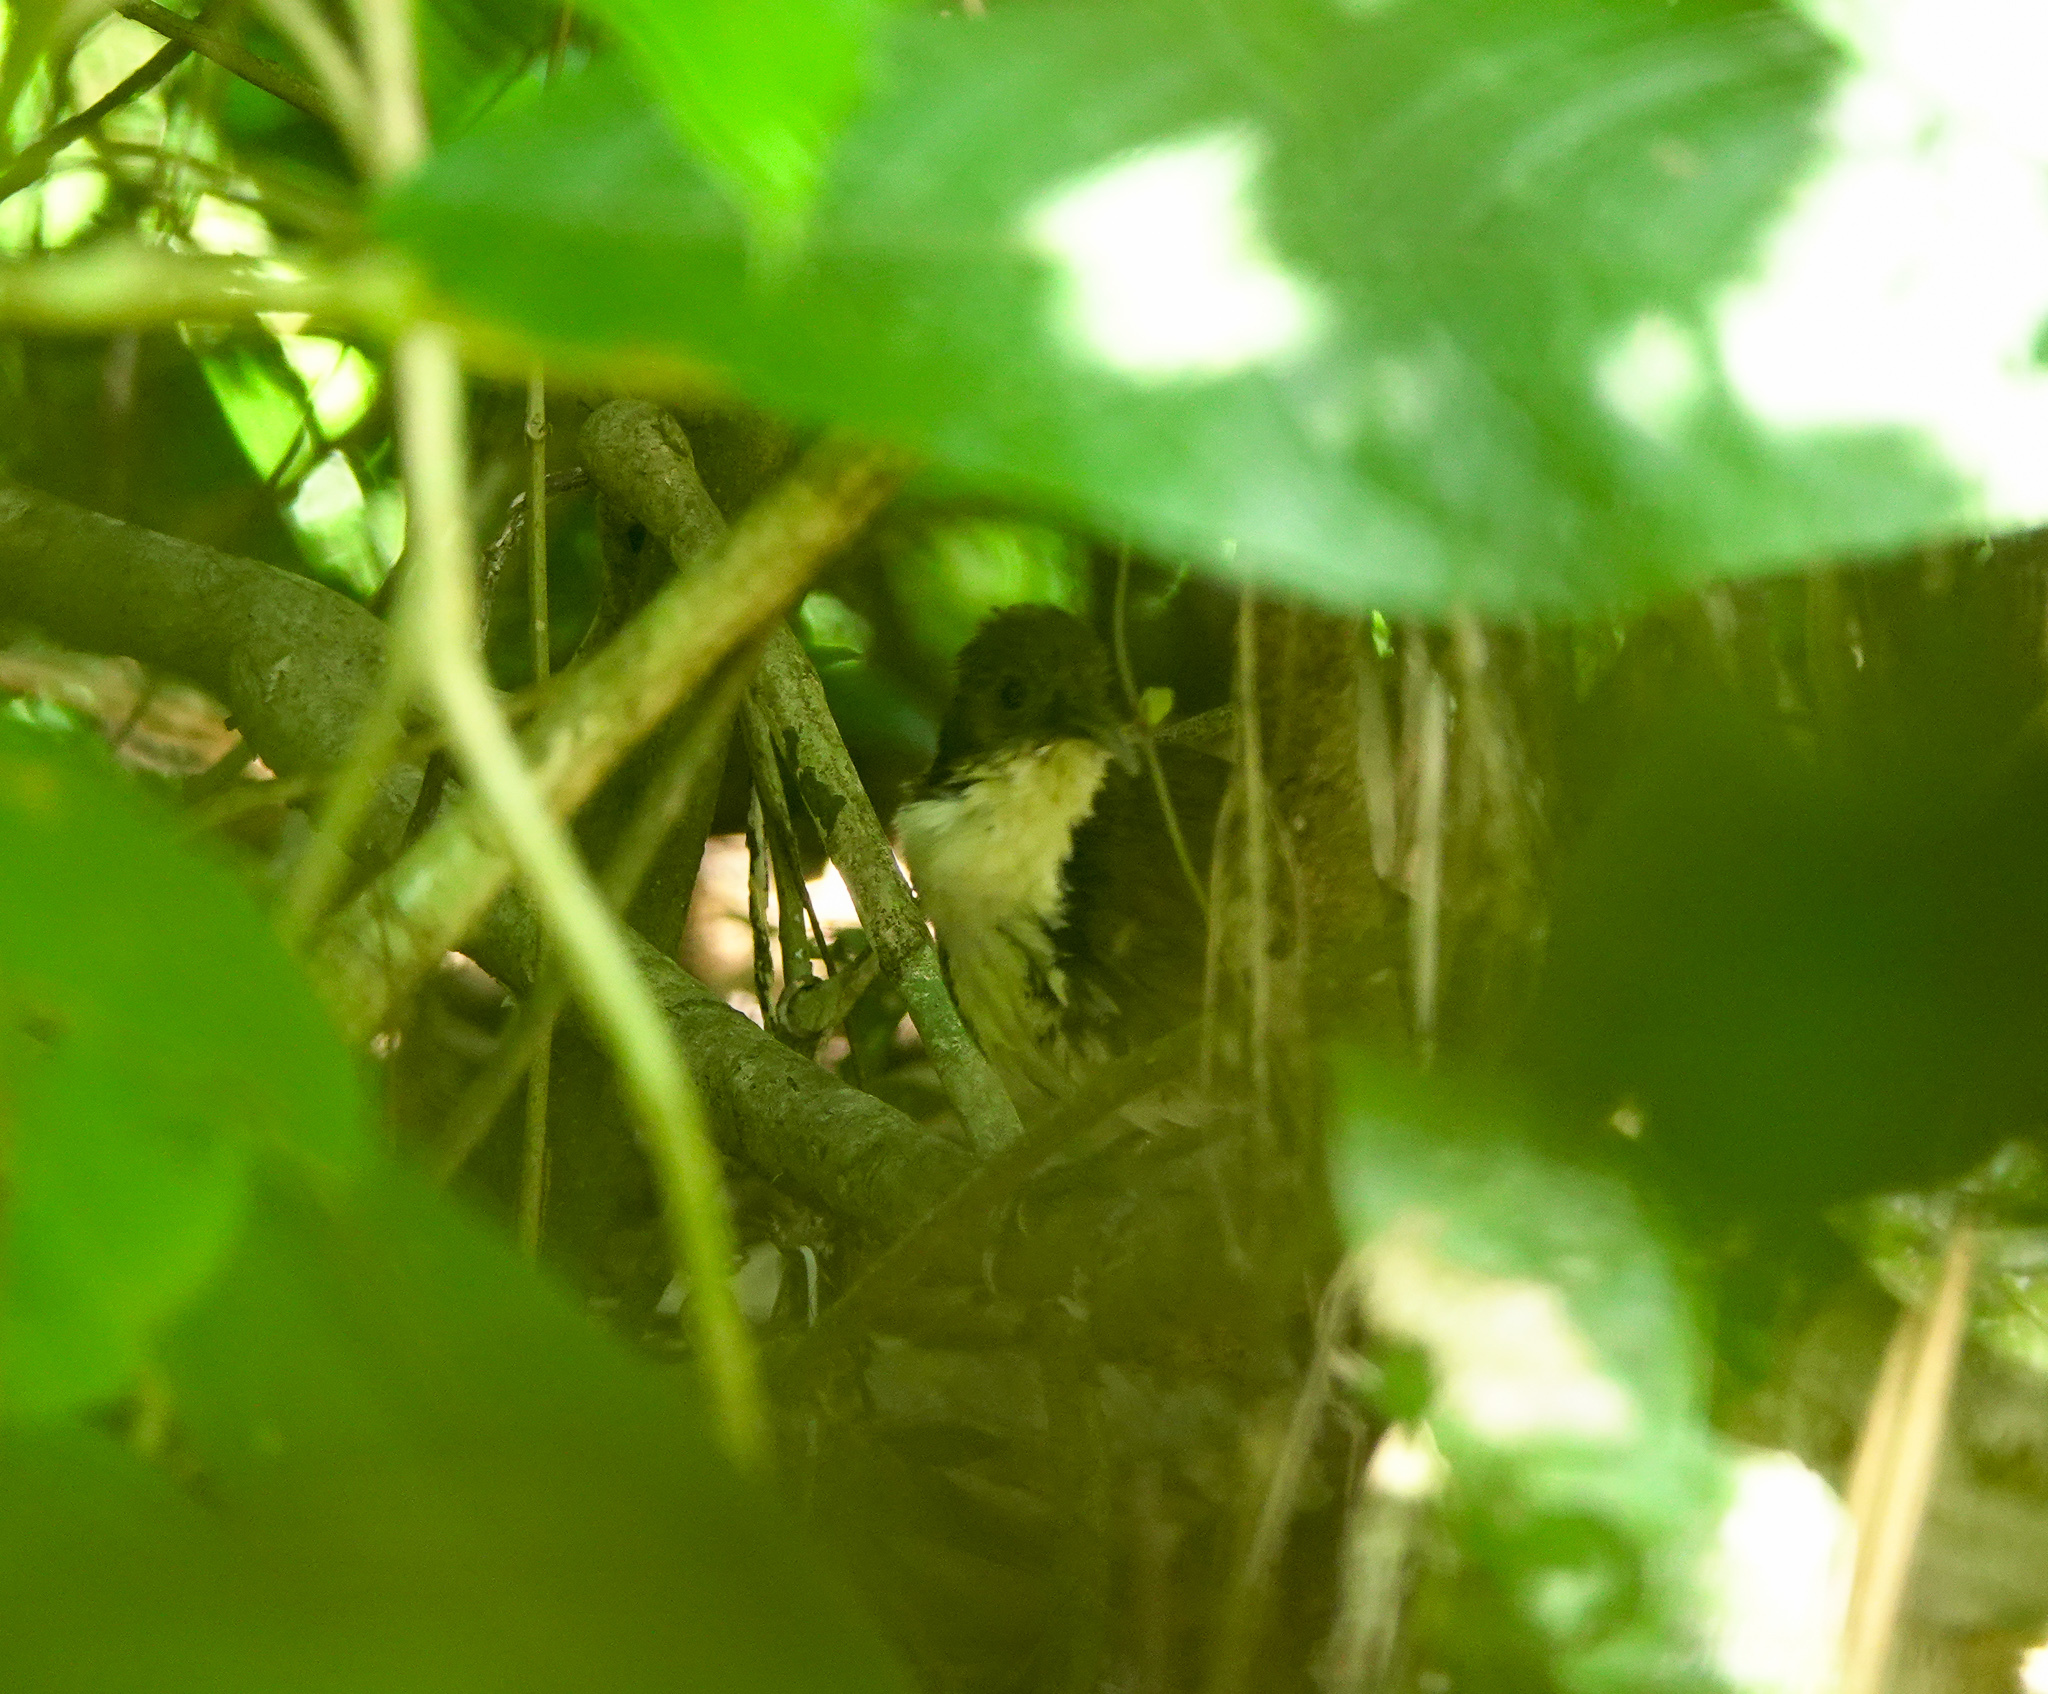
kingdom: Animalia
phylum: Chordata
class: Aves
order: Passeriformes
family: Timaliidae
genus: Pomatorhinus
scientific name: Pomatorhinus hypoleucos
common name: Large scimitar babbler
